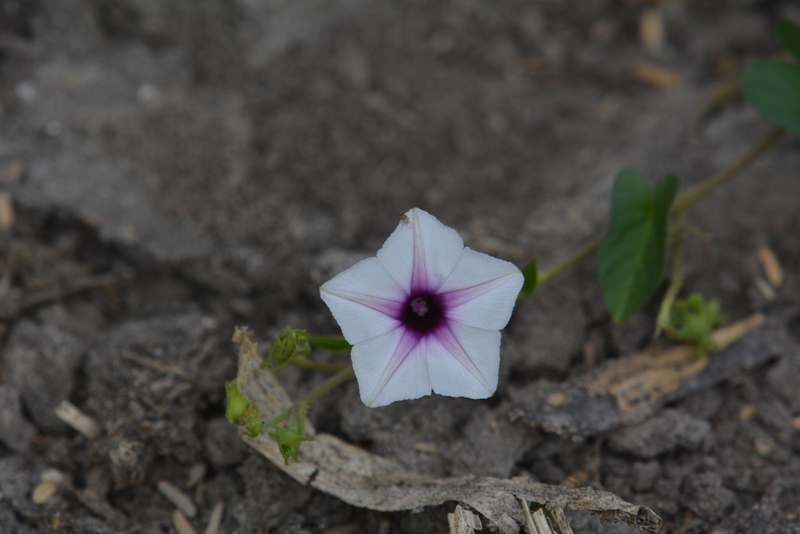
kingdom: Plantae
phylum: Tracheophyta
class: Magnoliopsida
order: Solanales
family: Convolvulaceae
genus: Ipomoea
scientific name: Ipomoea sinensis
